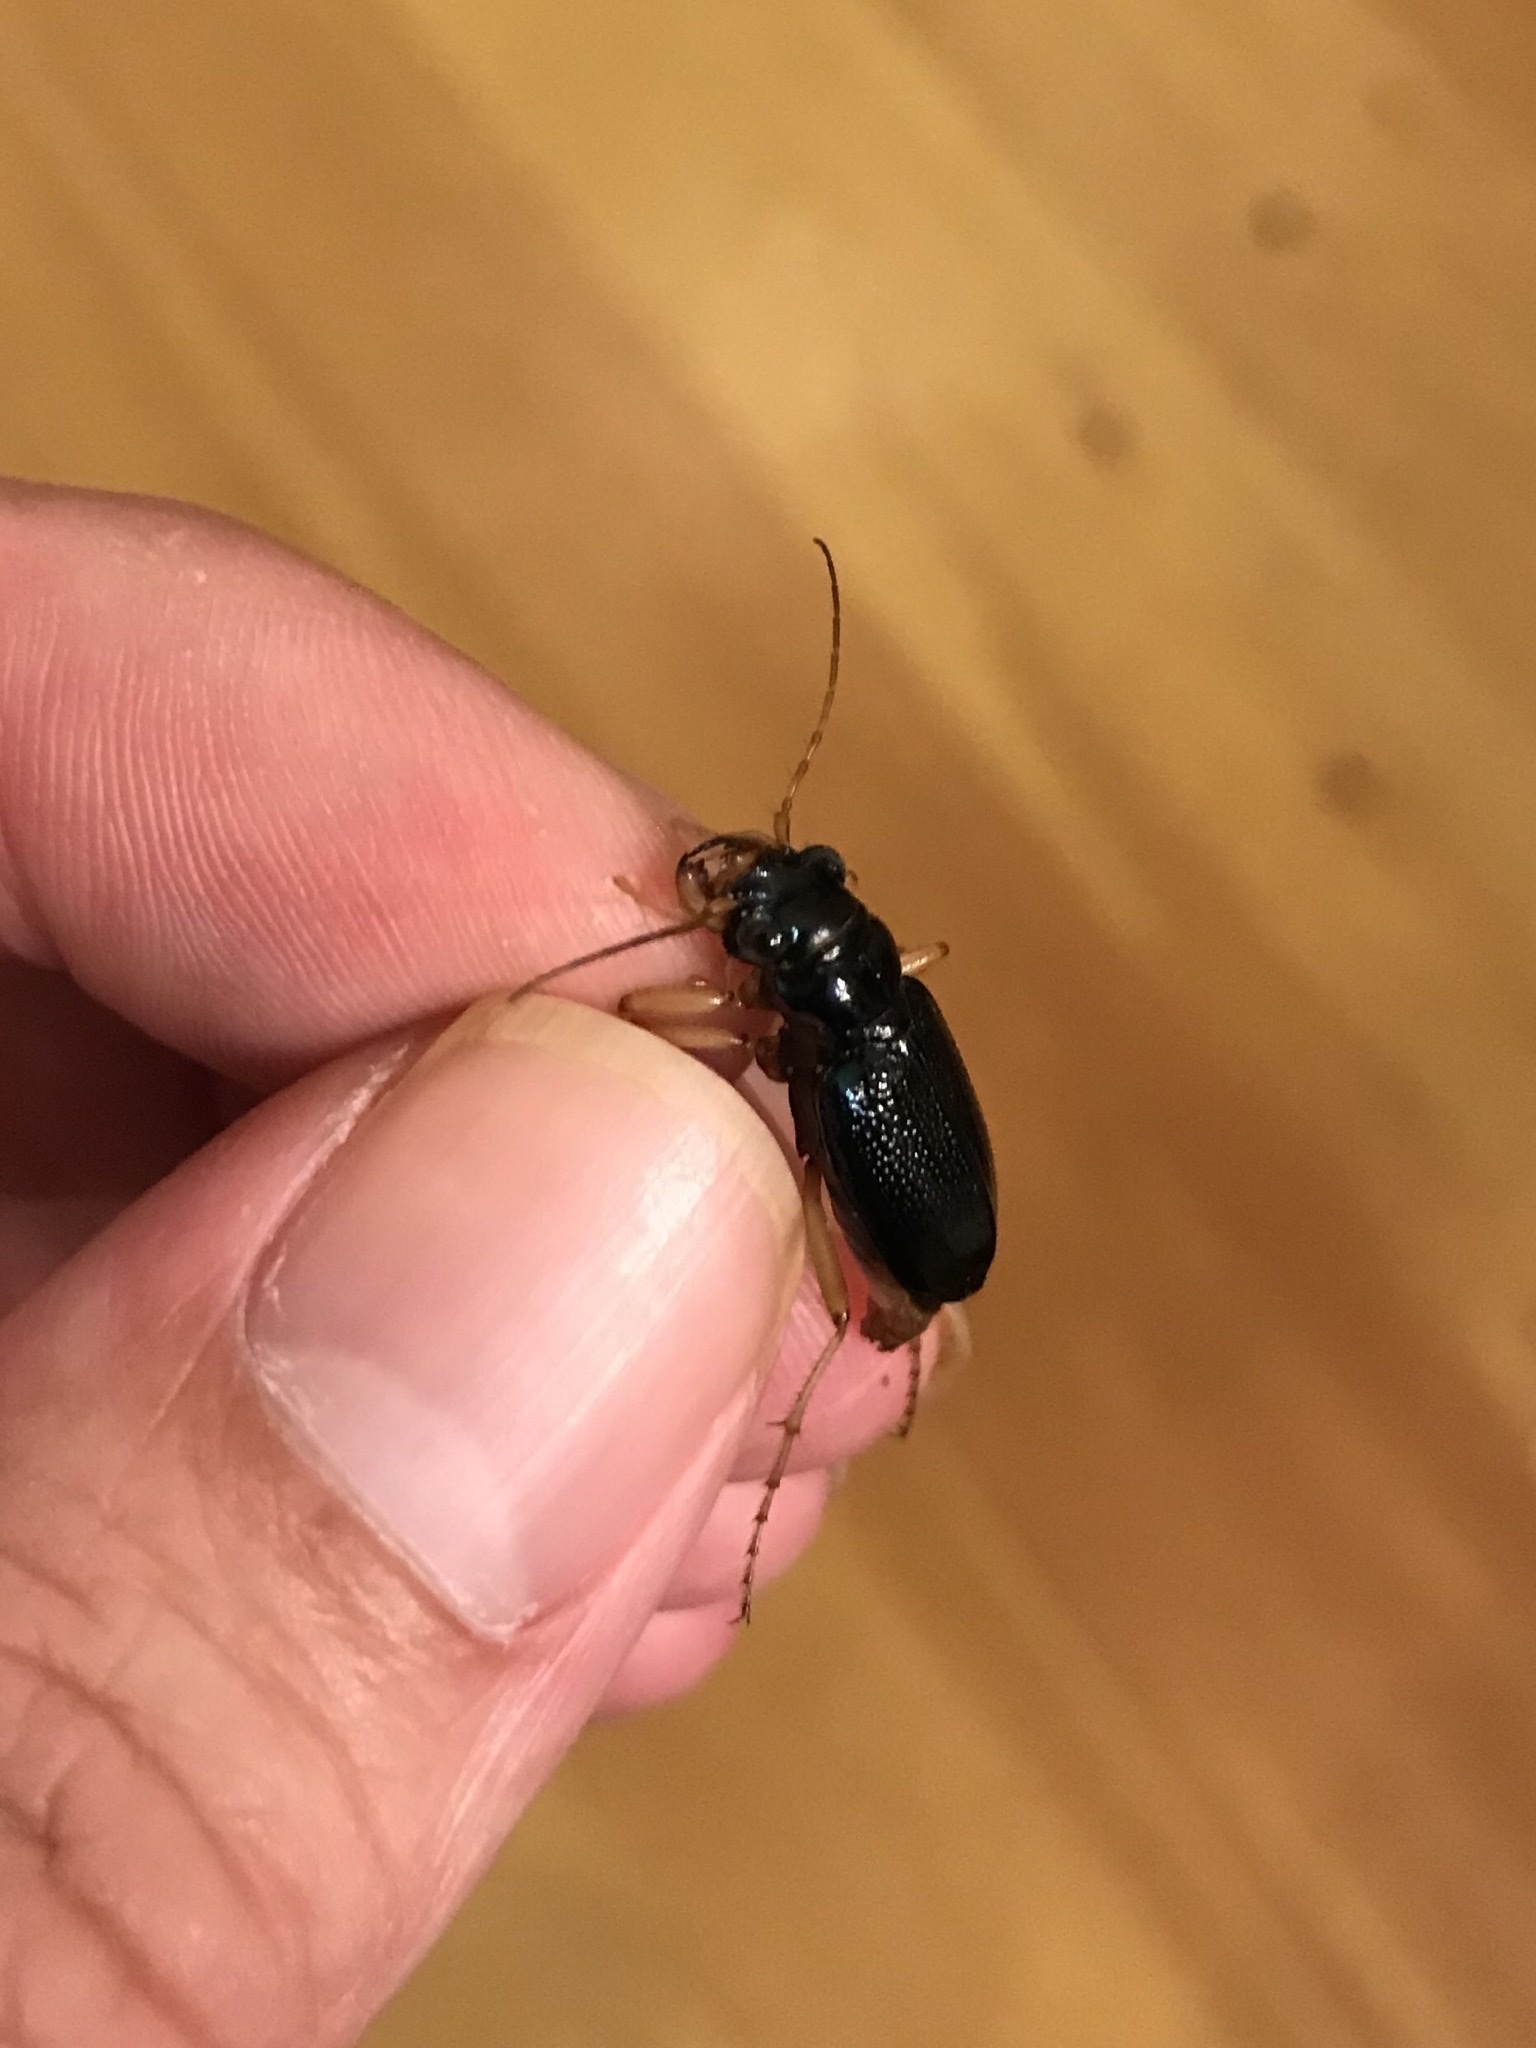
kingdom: Animalia
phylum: Arthropoda
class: Insecta
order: Coleoptera
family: Carabidae
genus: Tetracha
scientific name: Tetracha virginica
